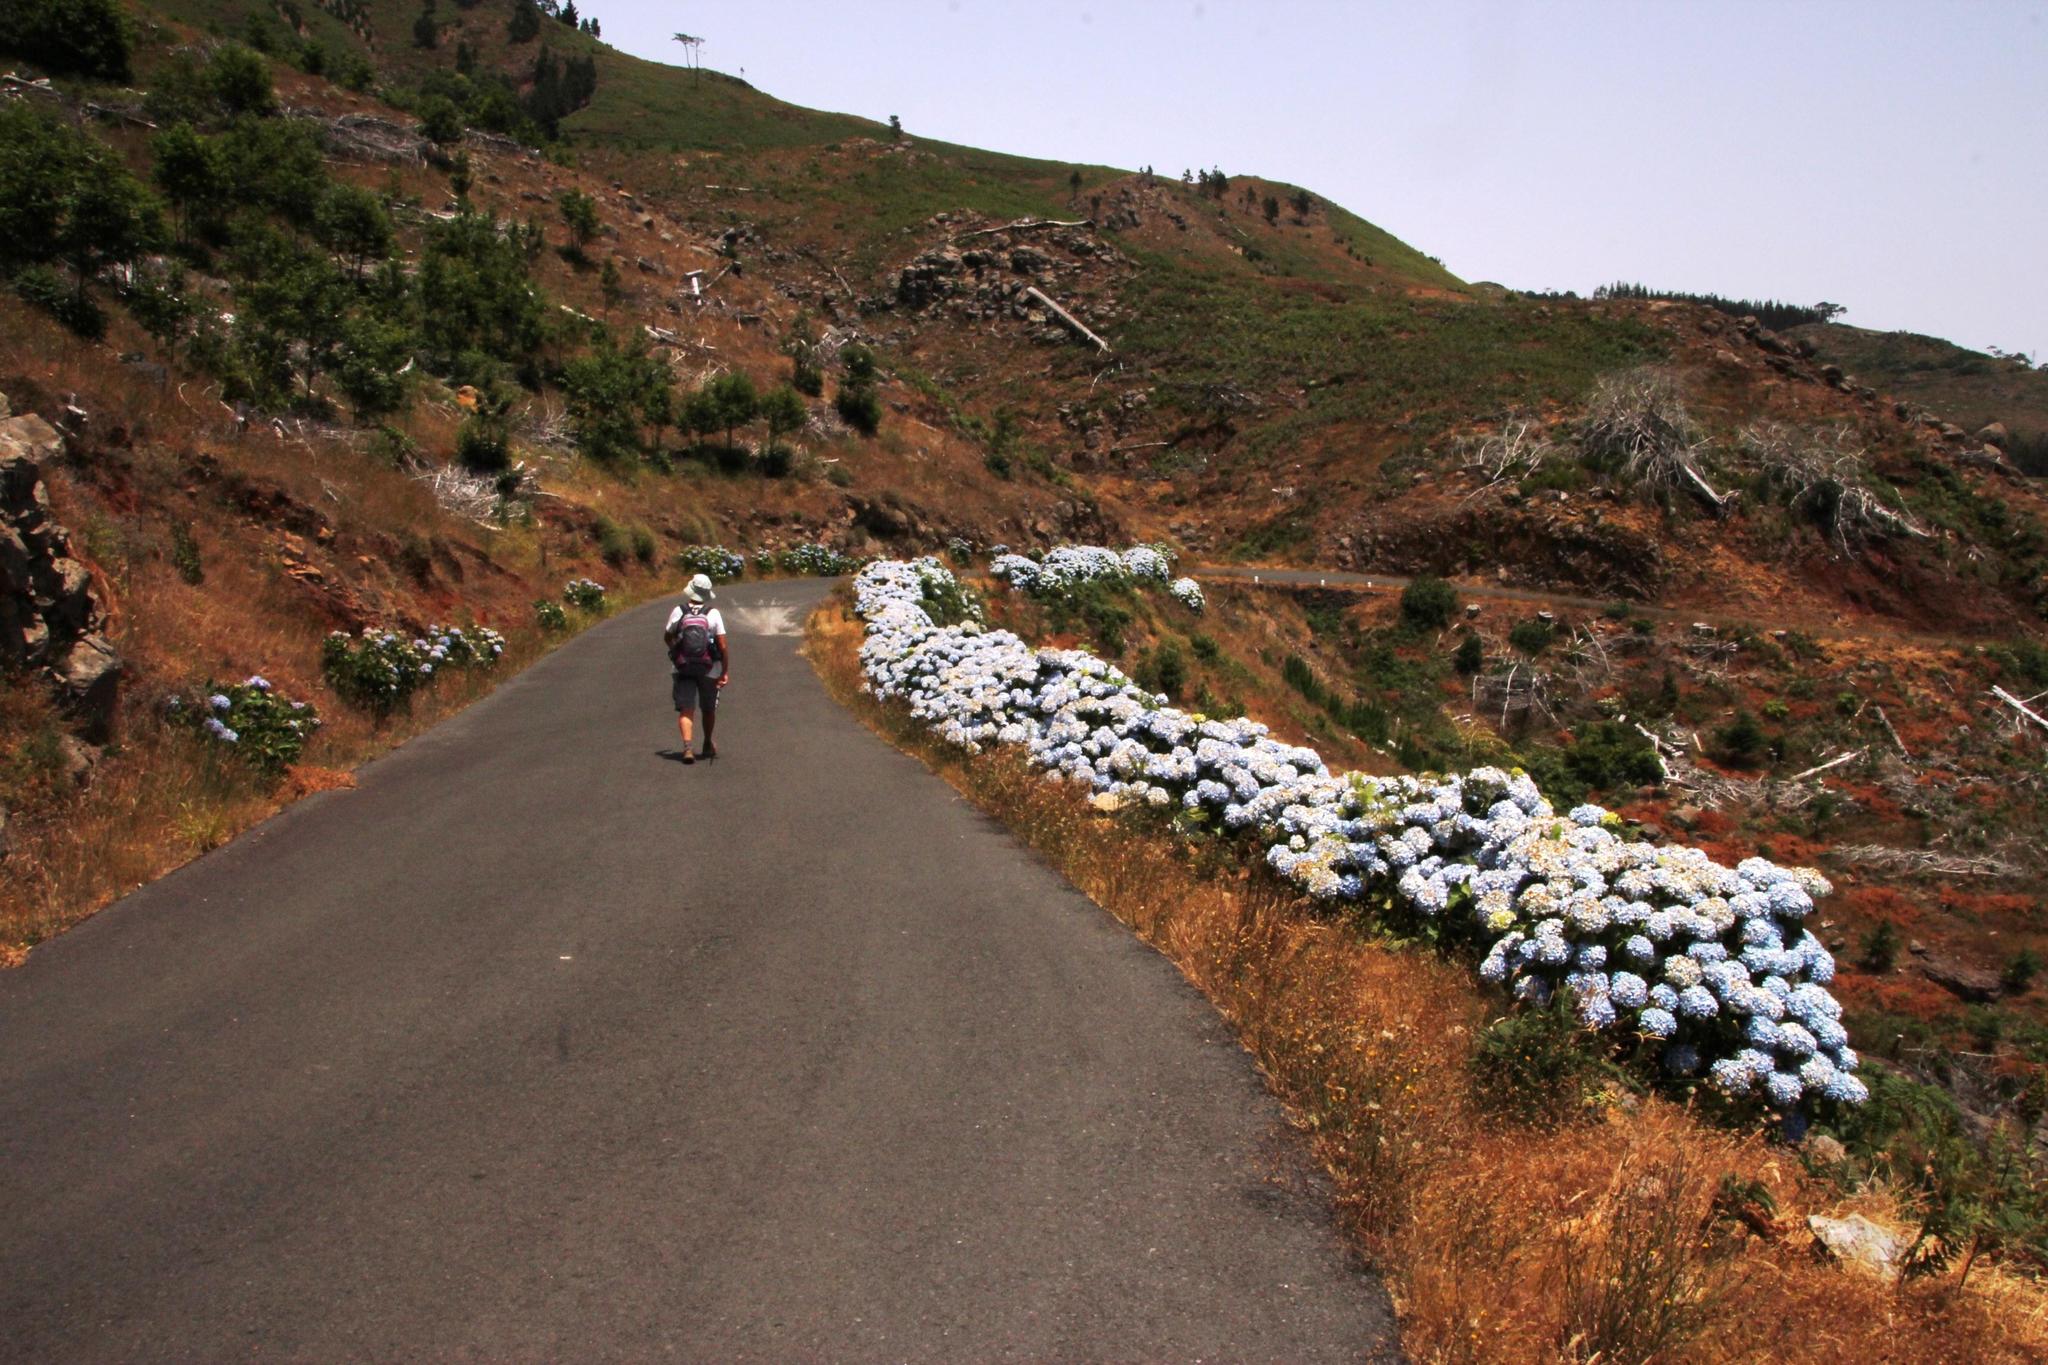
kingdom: Plantae
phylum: Tracheophyta
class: Magnoliopsida
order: Cornales
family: Hydrangeaceae
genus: Hydrangea
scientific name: Hydrangea macrophylla
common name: Hydrangea
